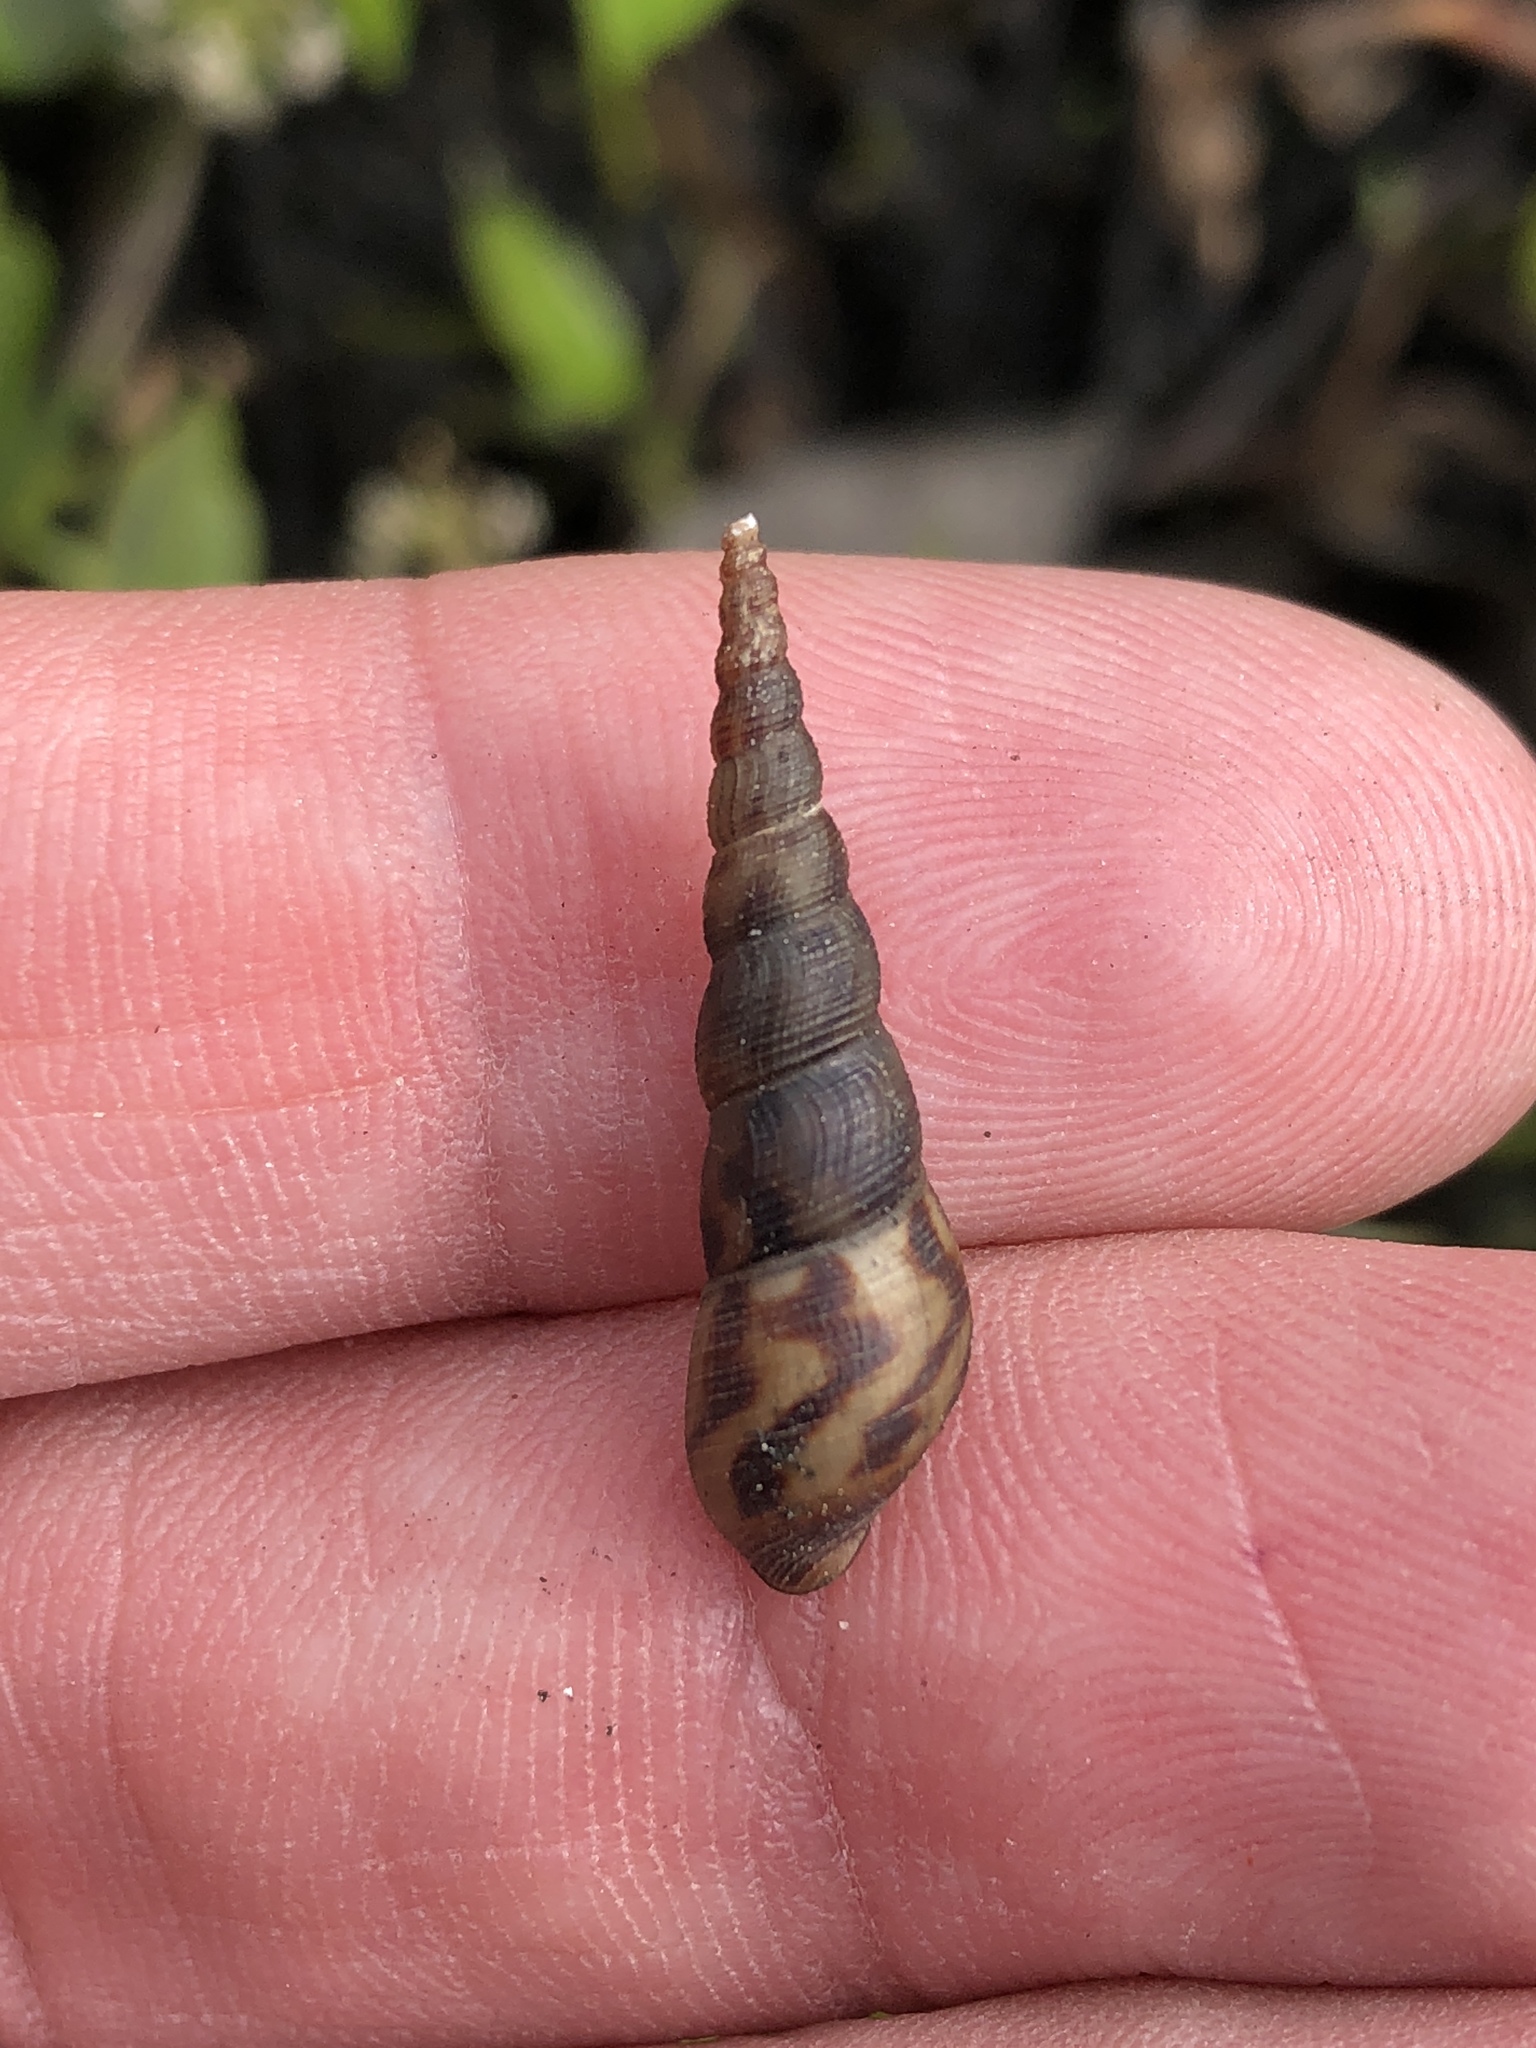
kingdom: Animalia
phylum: Mollusca
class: Gastropoda
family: Thiaridae
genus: Melanoides
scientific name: Melanoides tuberculata
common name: Red-rim melania
